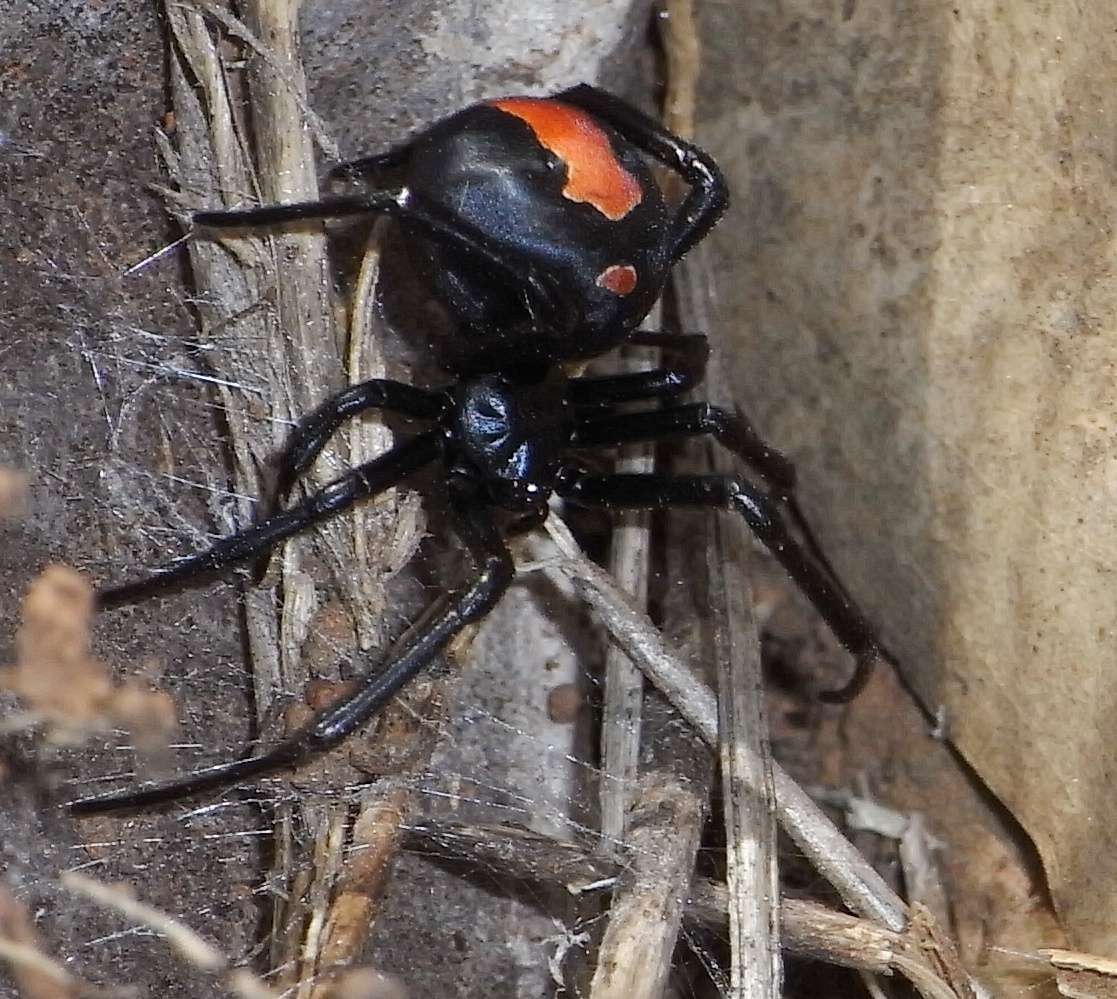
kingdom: Animalia
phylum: Arthropoda
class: Arachnida
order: Araneae
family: Theridiidae
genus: Latrodectus
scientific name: Latrodectus hasselti
